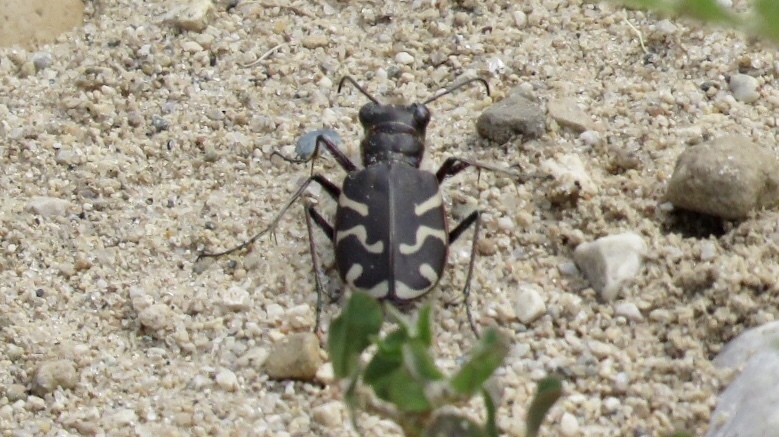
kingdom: Animalia
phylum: Arthropoda
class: Insecta
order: Coleoptera
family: Carabidae
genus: Cicindela
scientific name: Cicindela tranquebarica
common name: Oblique-lined tiger beetle
